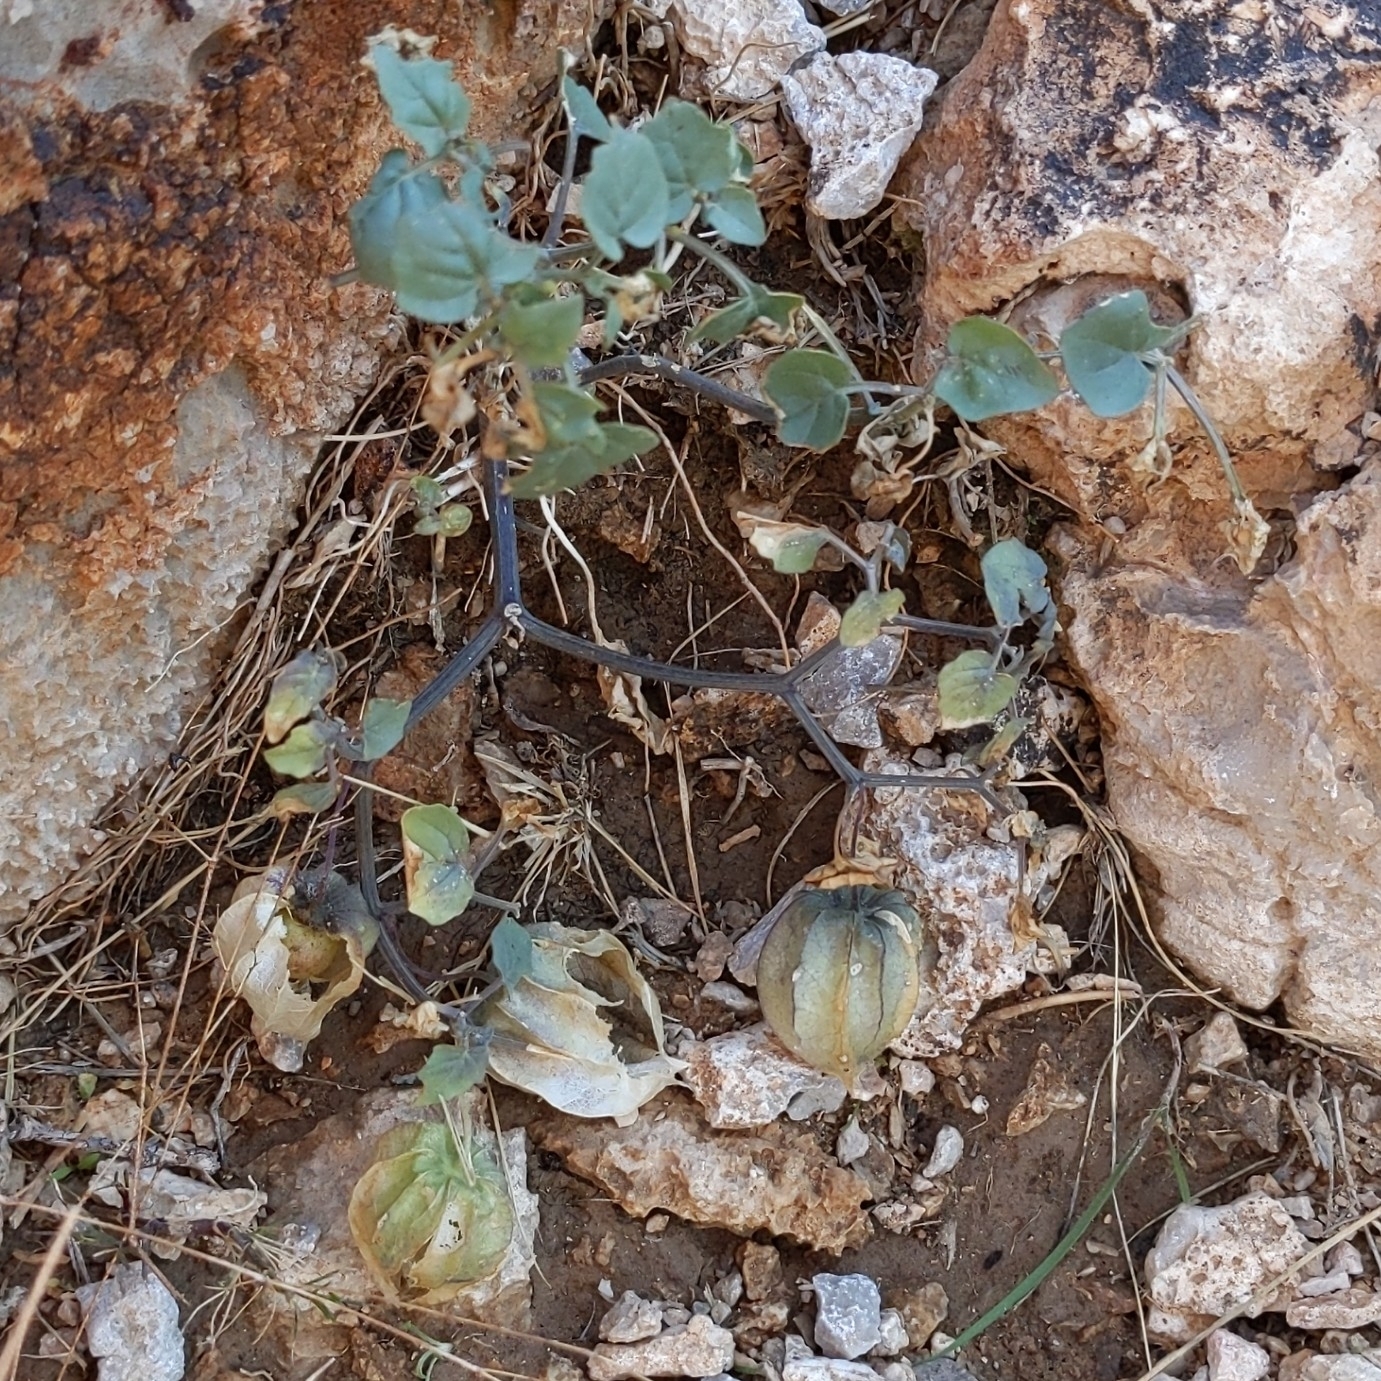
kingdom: Plantae
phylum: Tracheophyta
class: Magnoliopsida
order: Solanales
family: Solanaceae
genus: Physalis
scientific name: Physalis crassifolia
